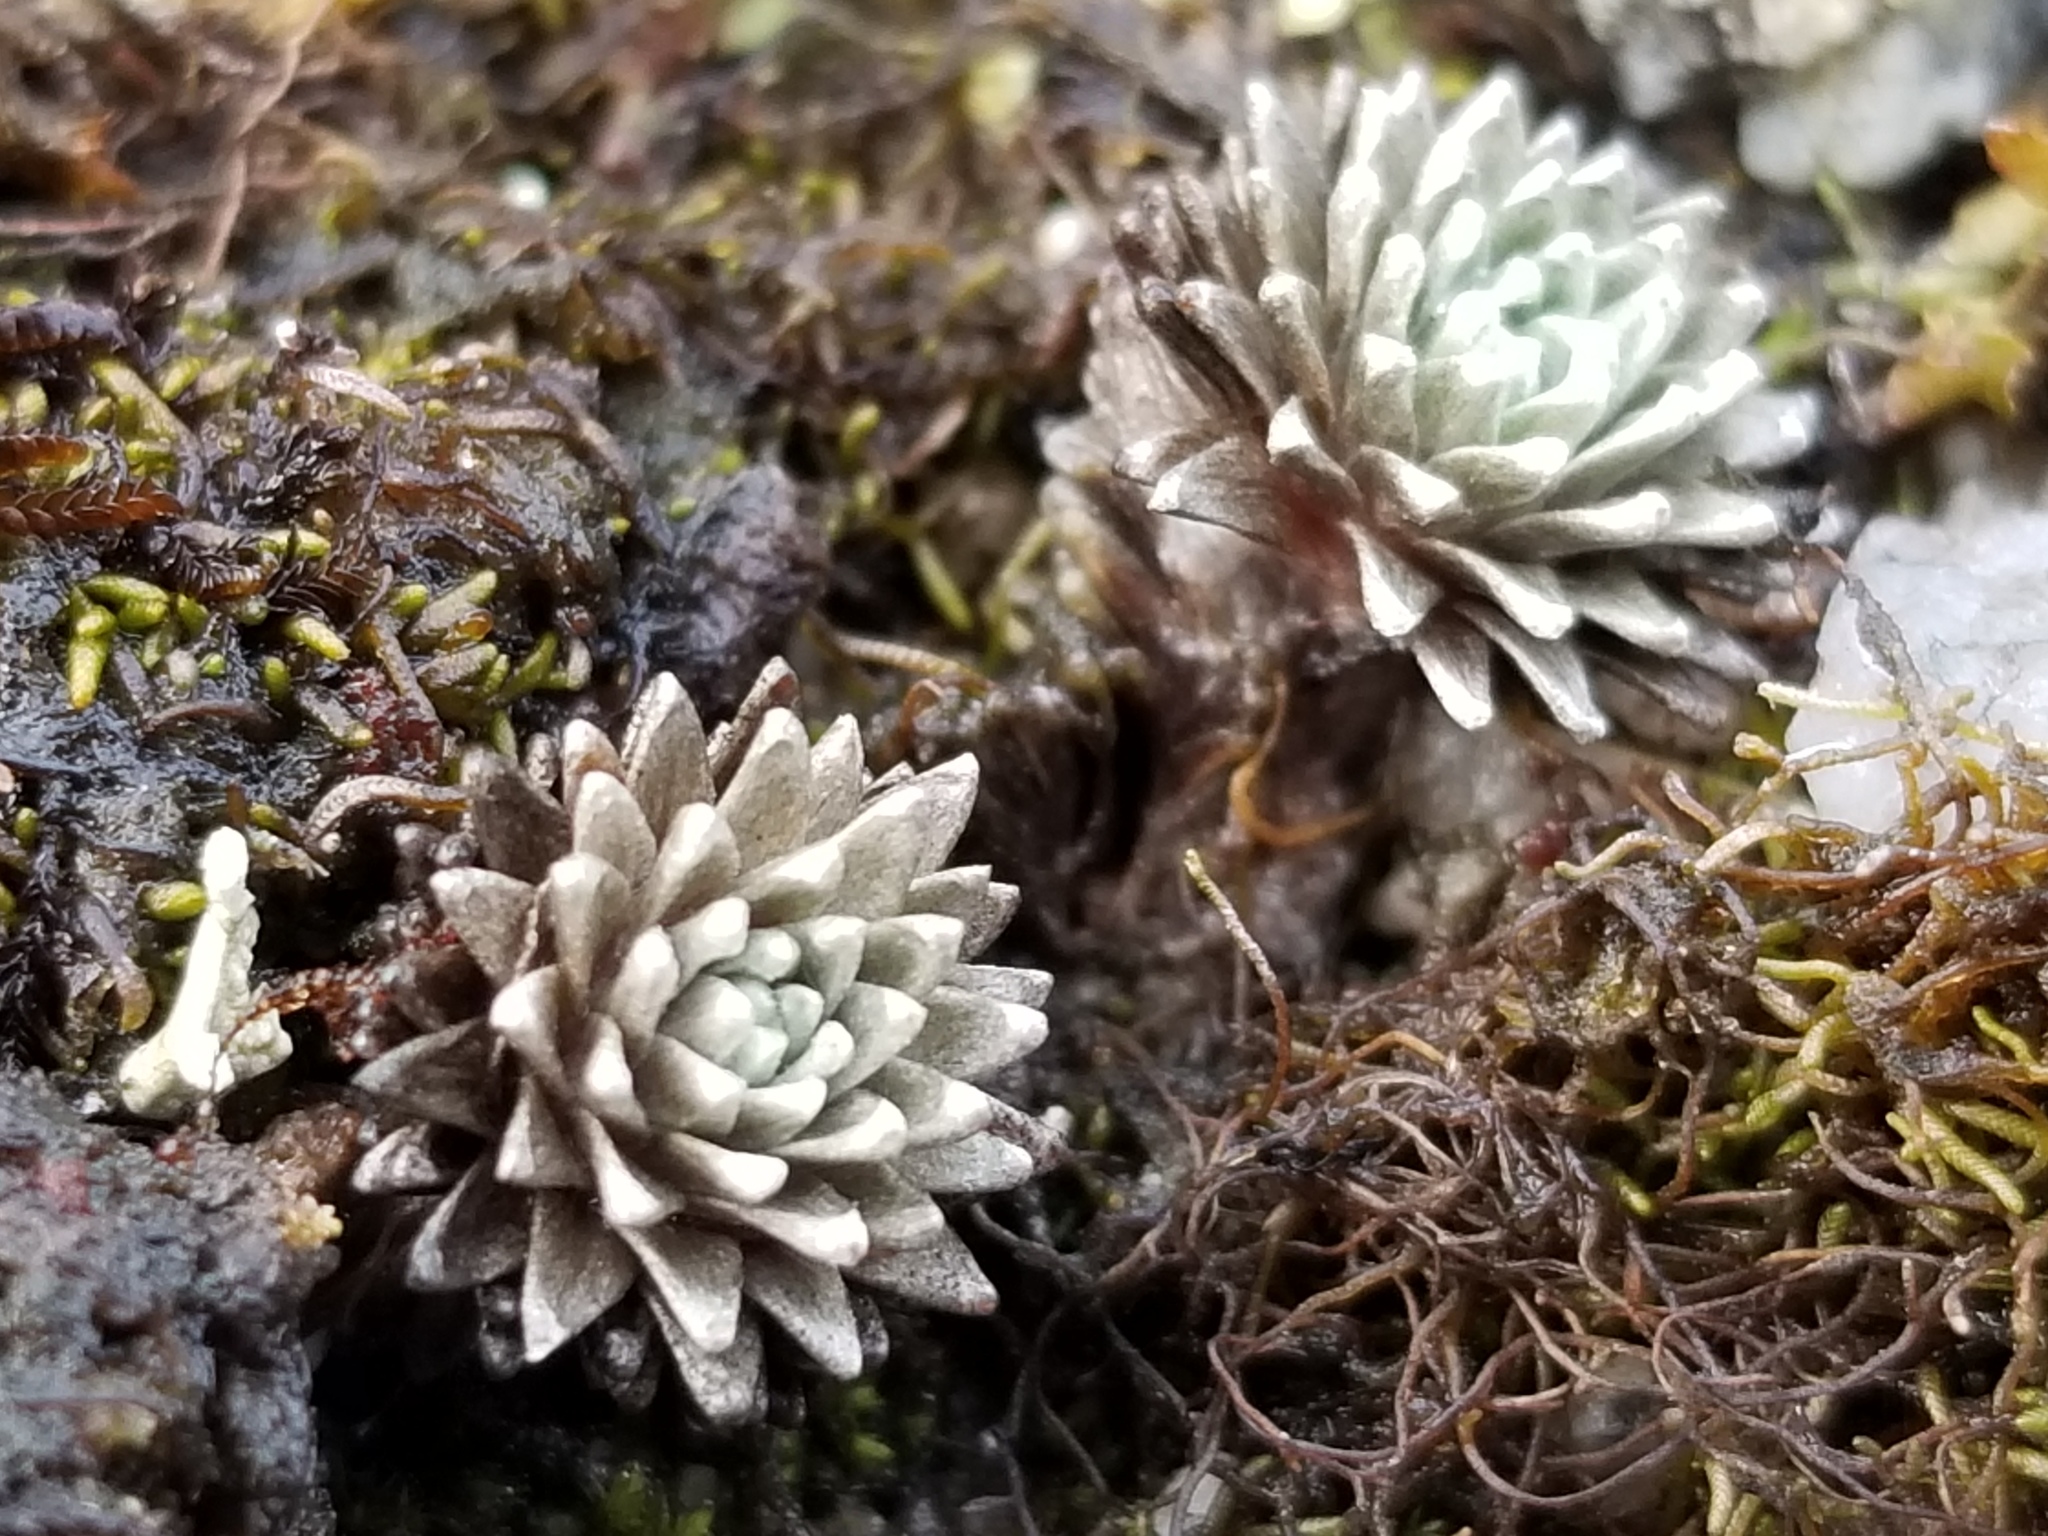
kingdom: Plantae
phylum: Tracheophyta
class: Magnoliopsida
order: Asterales
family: Asteraceae
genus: Raoulia
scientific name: Raoulia grandiflora
